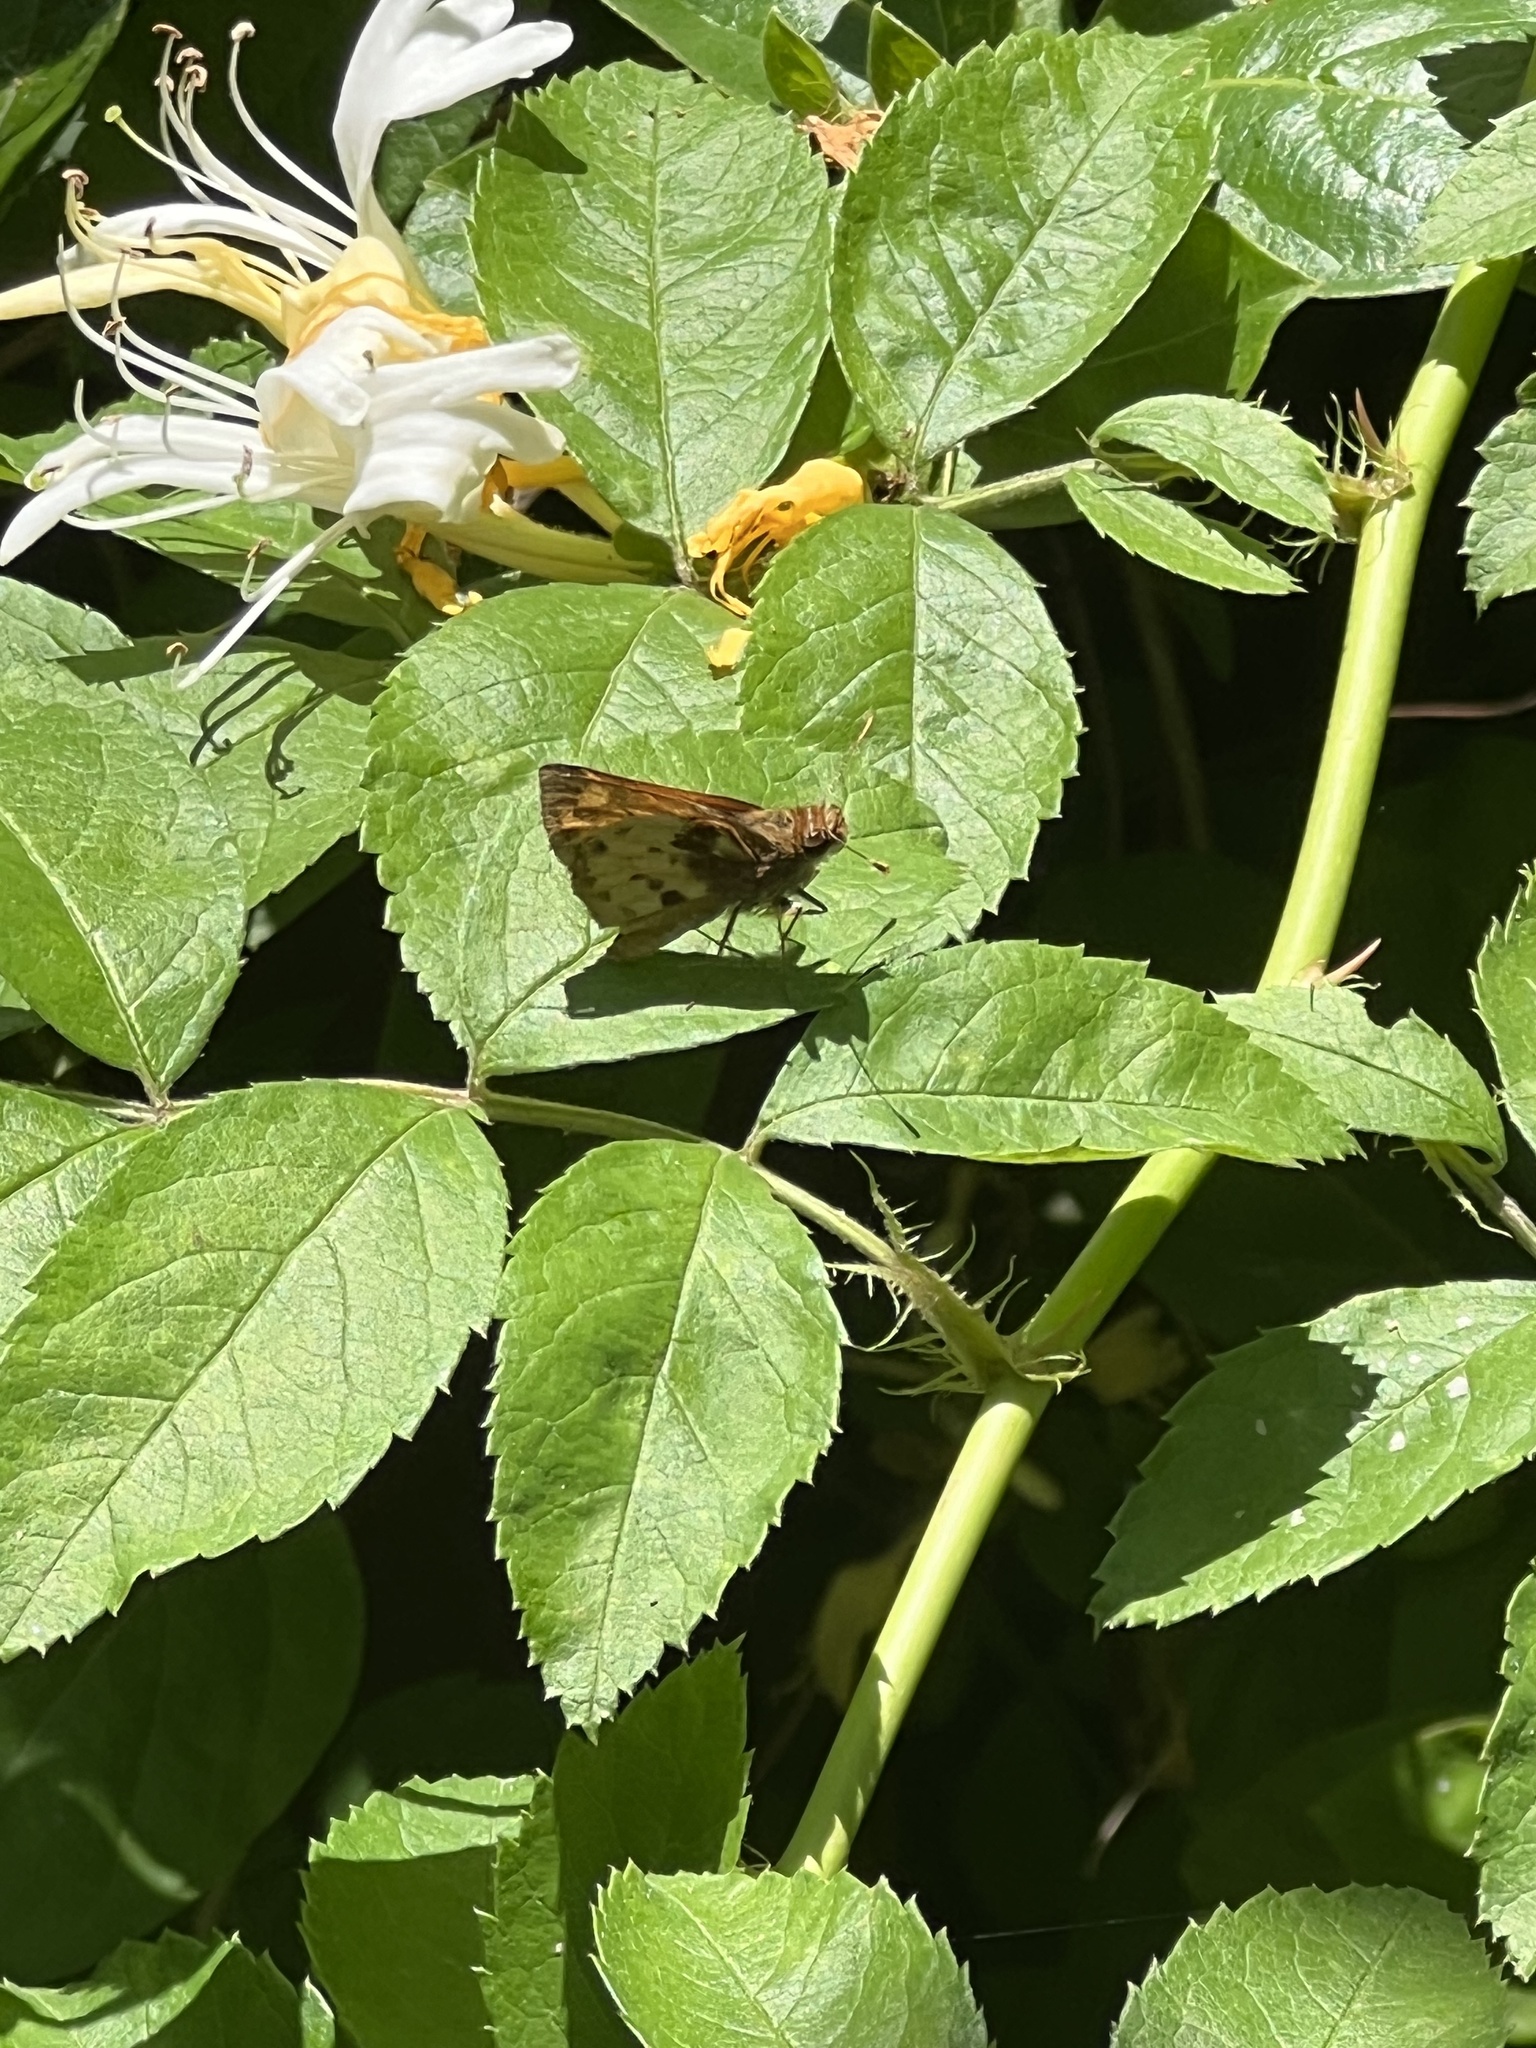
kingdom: Animalia
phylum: Arthropoda
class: Insecta
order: Lepidoptera
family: Hesperiidae
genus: Lon
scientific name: Lon zabulon
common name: Zabulon skipper
